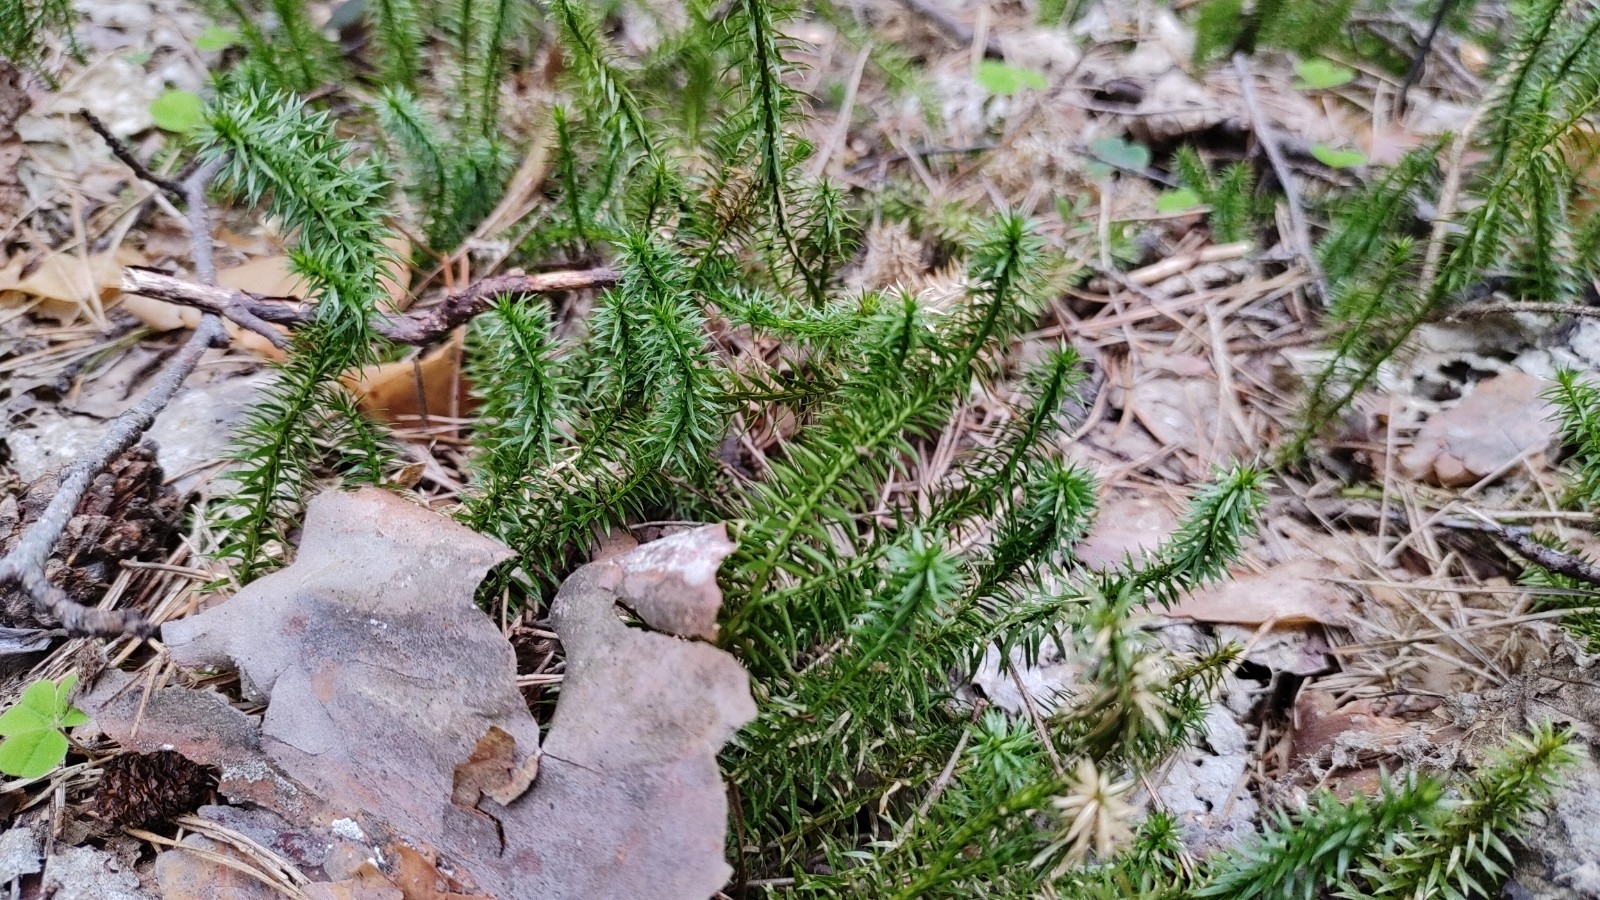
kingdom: Plantae
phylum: Tracheophyta
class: Lycopodiopsida
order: Lycopodiales
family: Lycopodiaceae
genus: Spinulum
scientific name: Spinulum annotinum
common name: Interrupted club-moss
